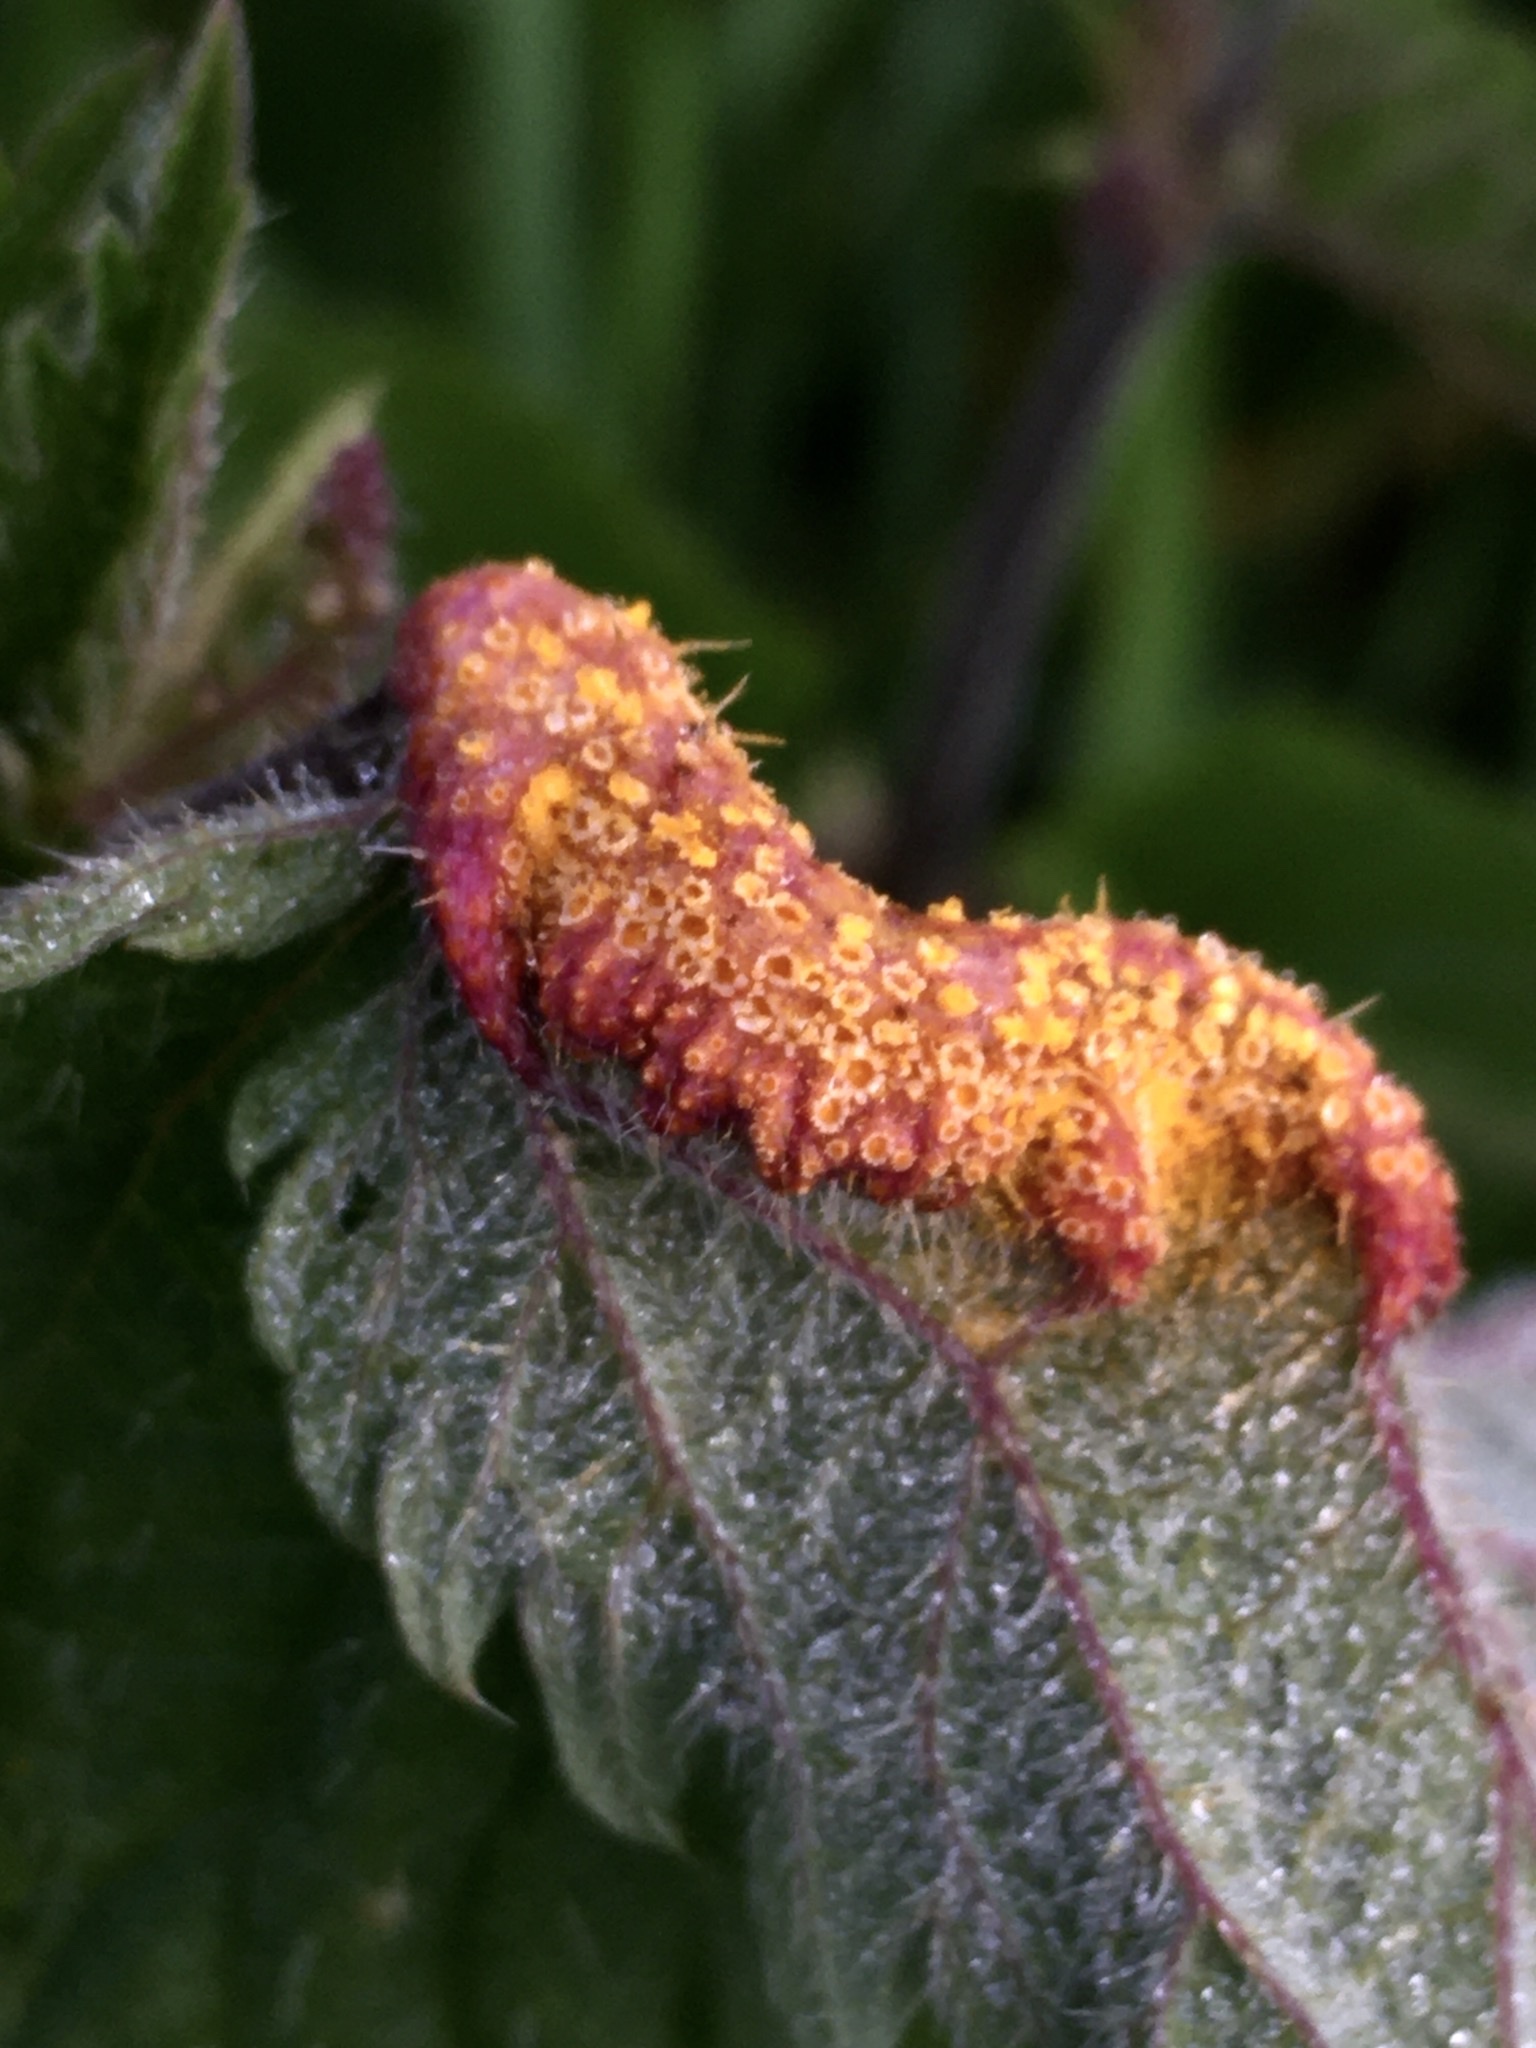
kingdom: Fungi
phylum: Basidiomycota
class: Pucciniomycetes
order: Pucciniales
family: Pucciniaceae
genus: Puccinia
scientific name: Puccinia urticata
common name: Nettle clustercup rust fungus
